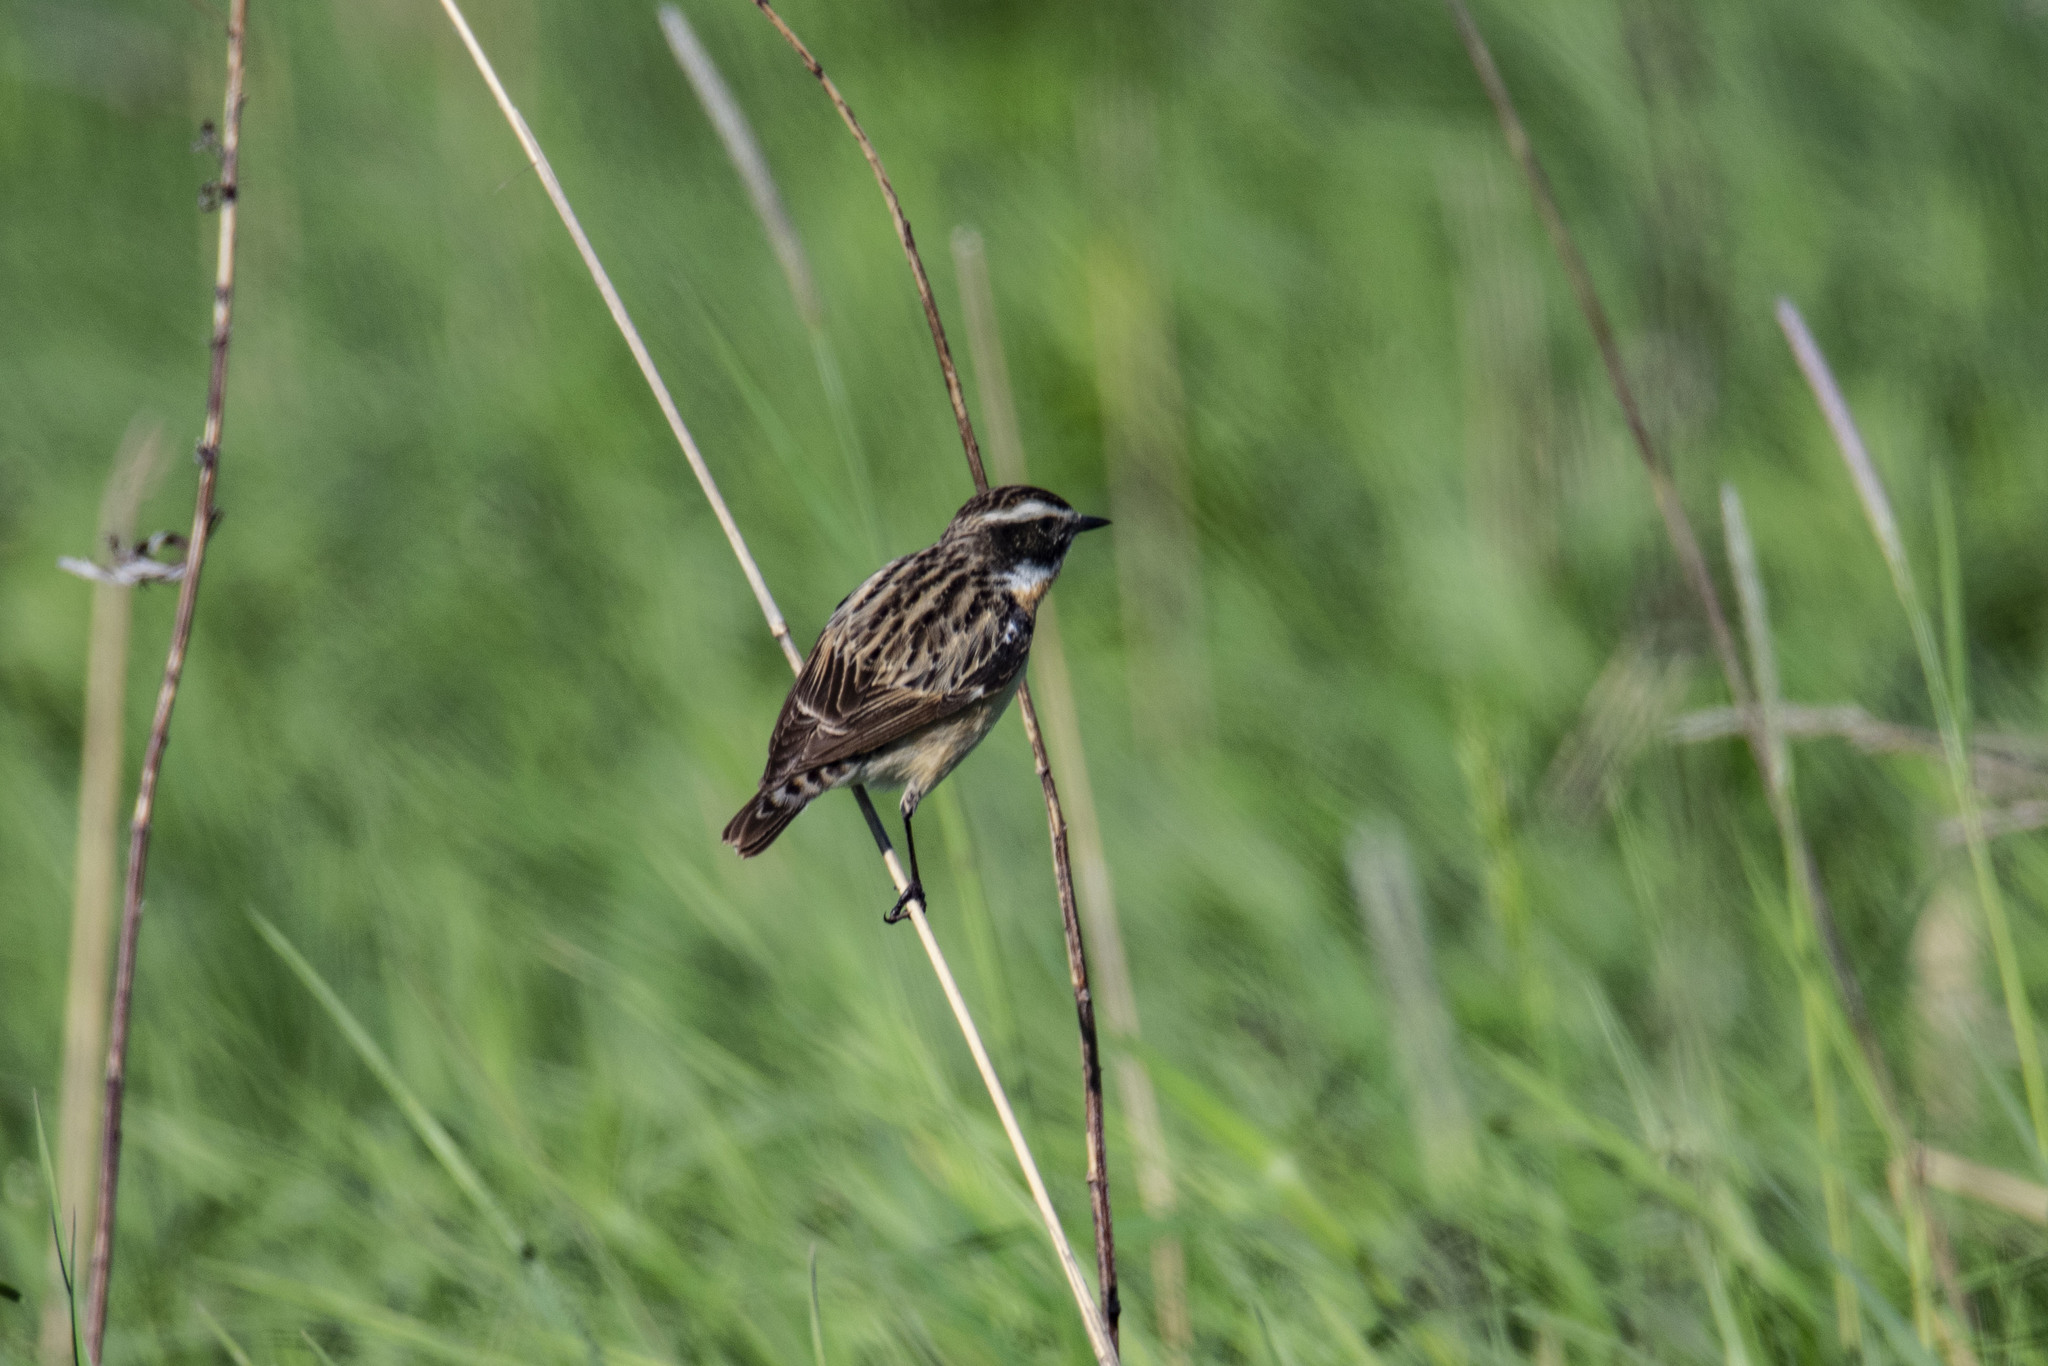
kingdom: Animalia
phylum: Chordata
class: Aves
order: Passeriformes
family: Muscicapidae
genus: Saxicola
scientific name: Saxicola rubetra
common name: Whinchat
